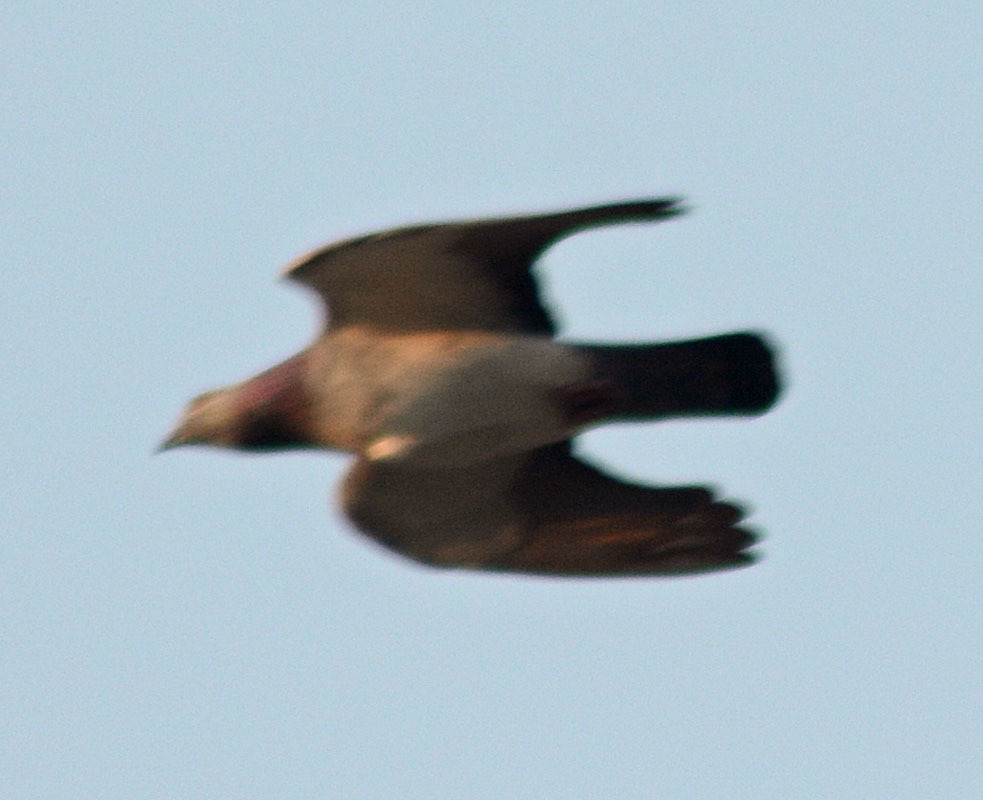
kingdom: Animalia
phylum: Chordata
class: Aves
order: Columbiformes
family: Columbidae
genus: Columba
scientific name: Columba livia
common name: Rock pigeon
